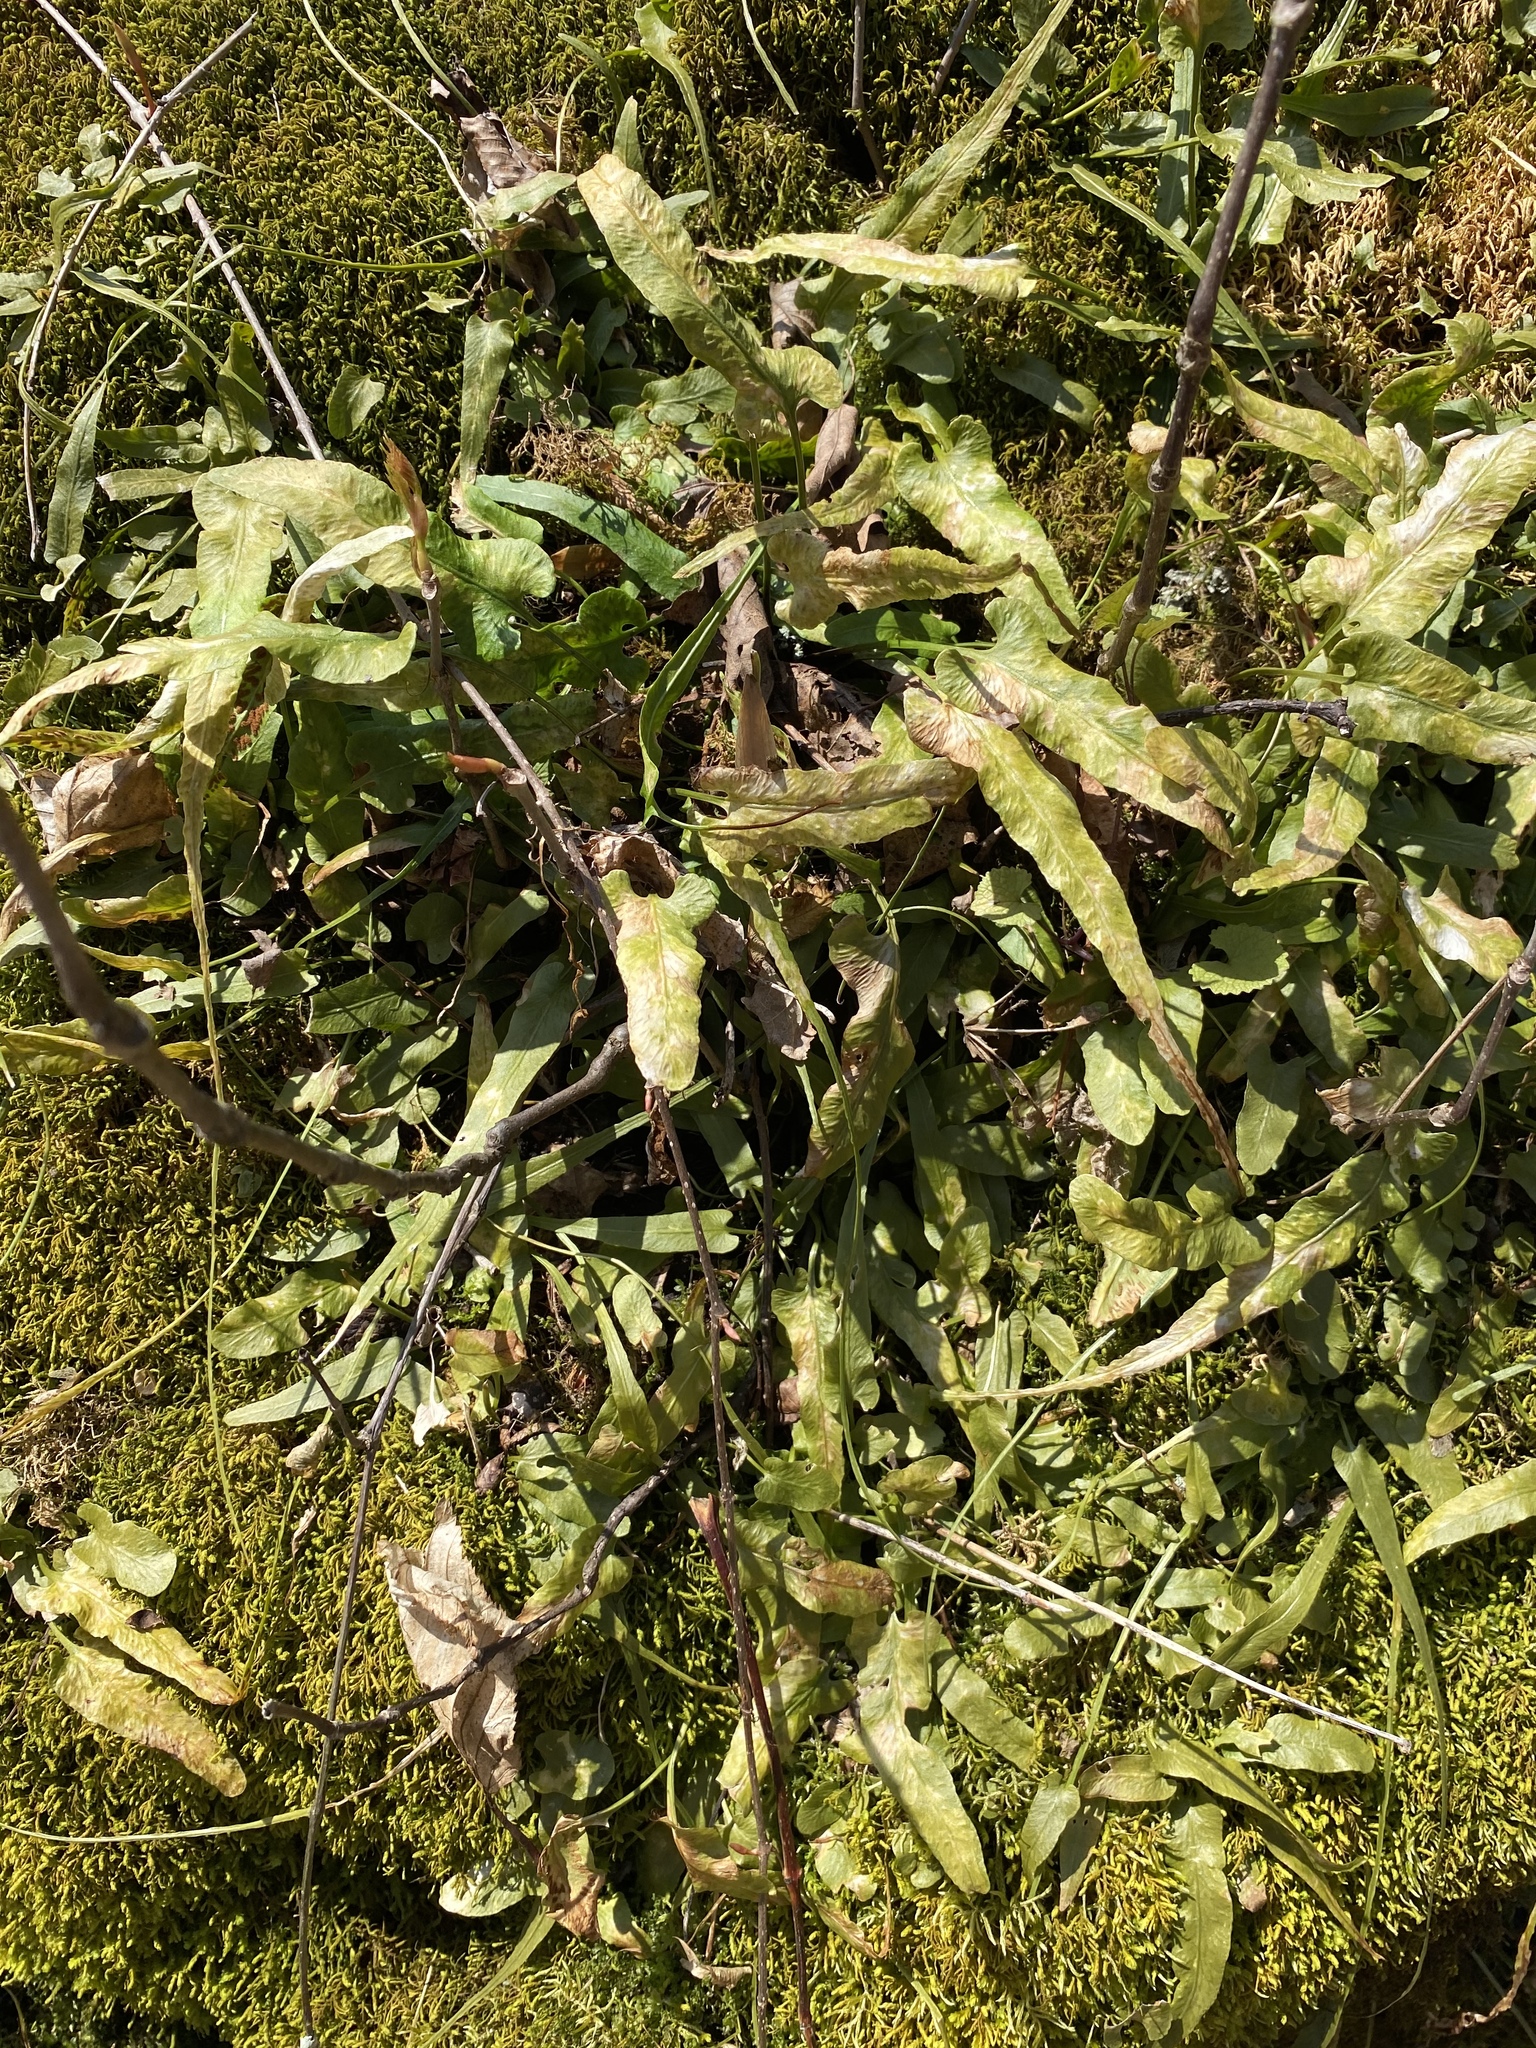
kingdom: Plantae
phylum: Tracheophyta
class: Polypodiopsida
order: Polypodiales
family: Aspleniaceae
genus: Asplenium
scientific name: Asplenium rhizophyllum
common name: Walking fern
